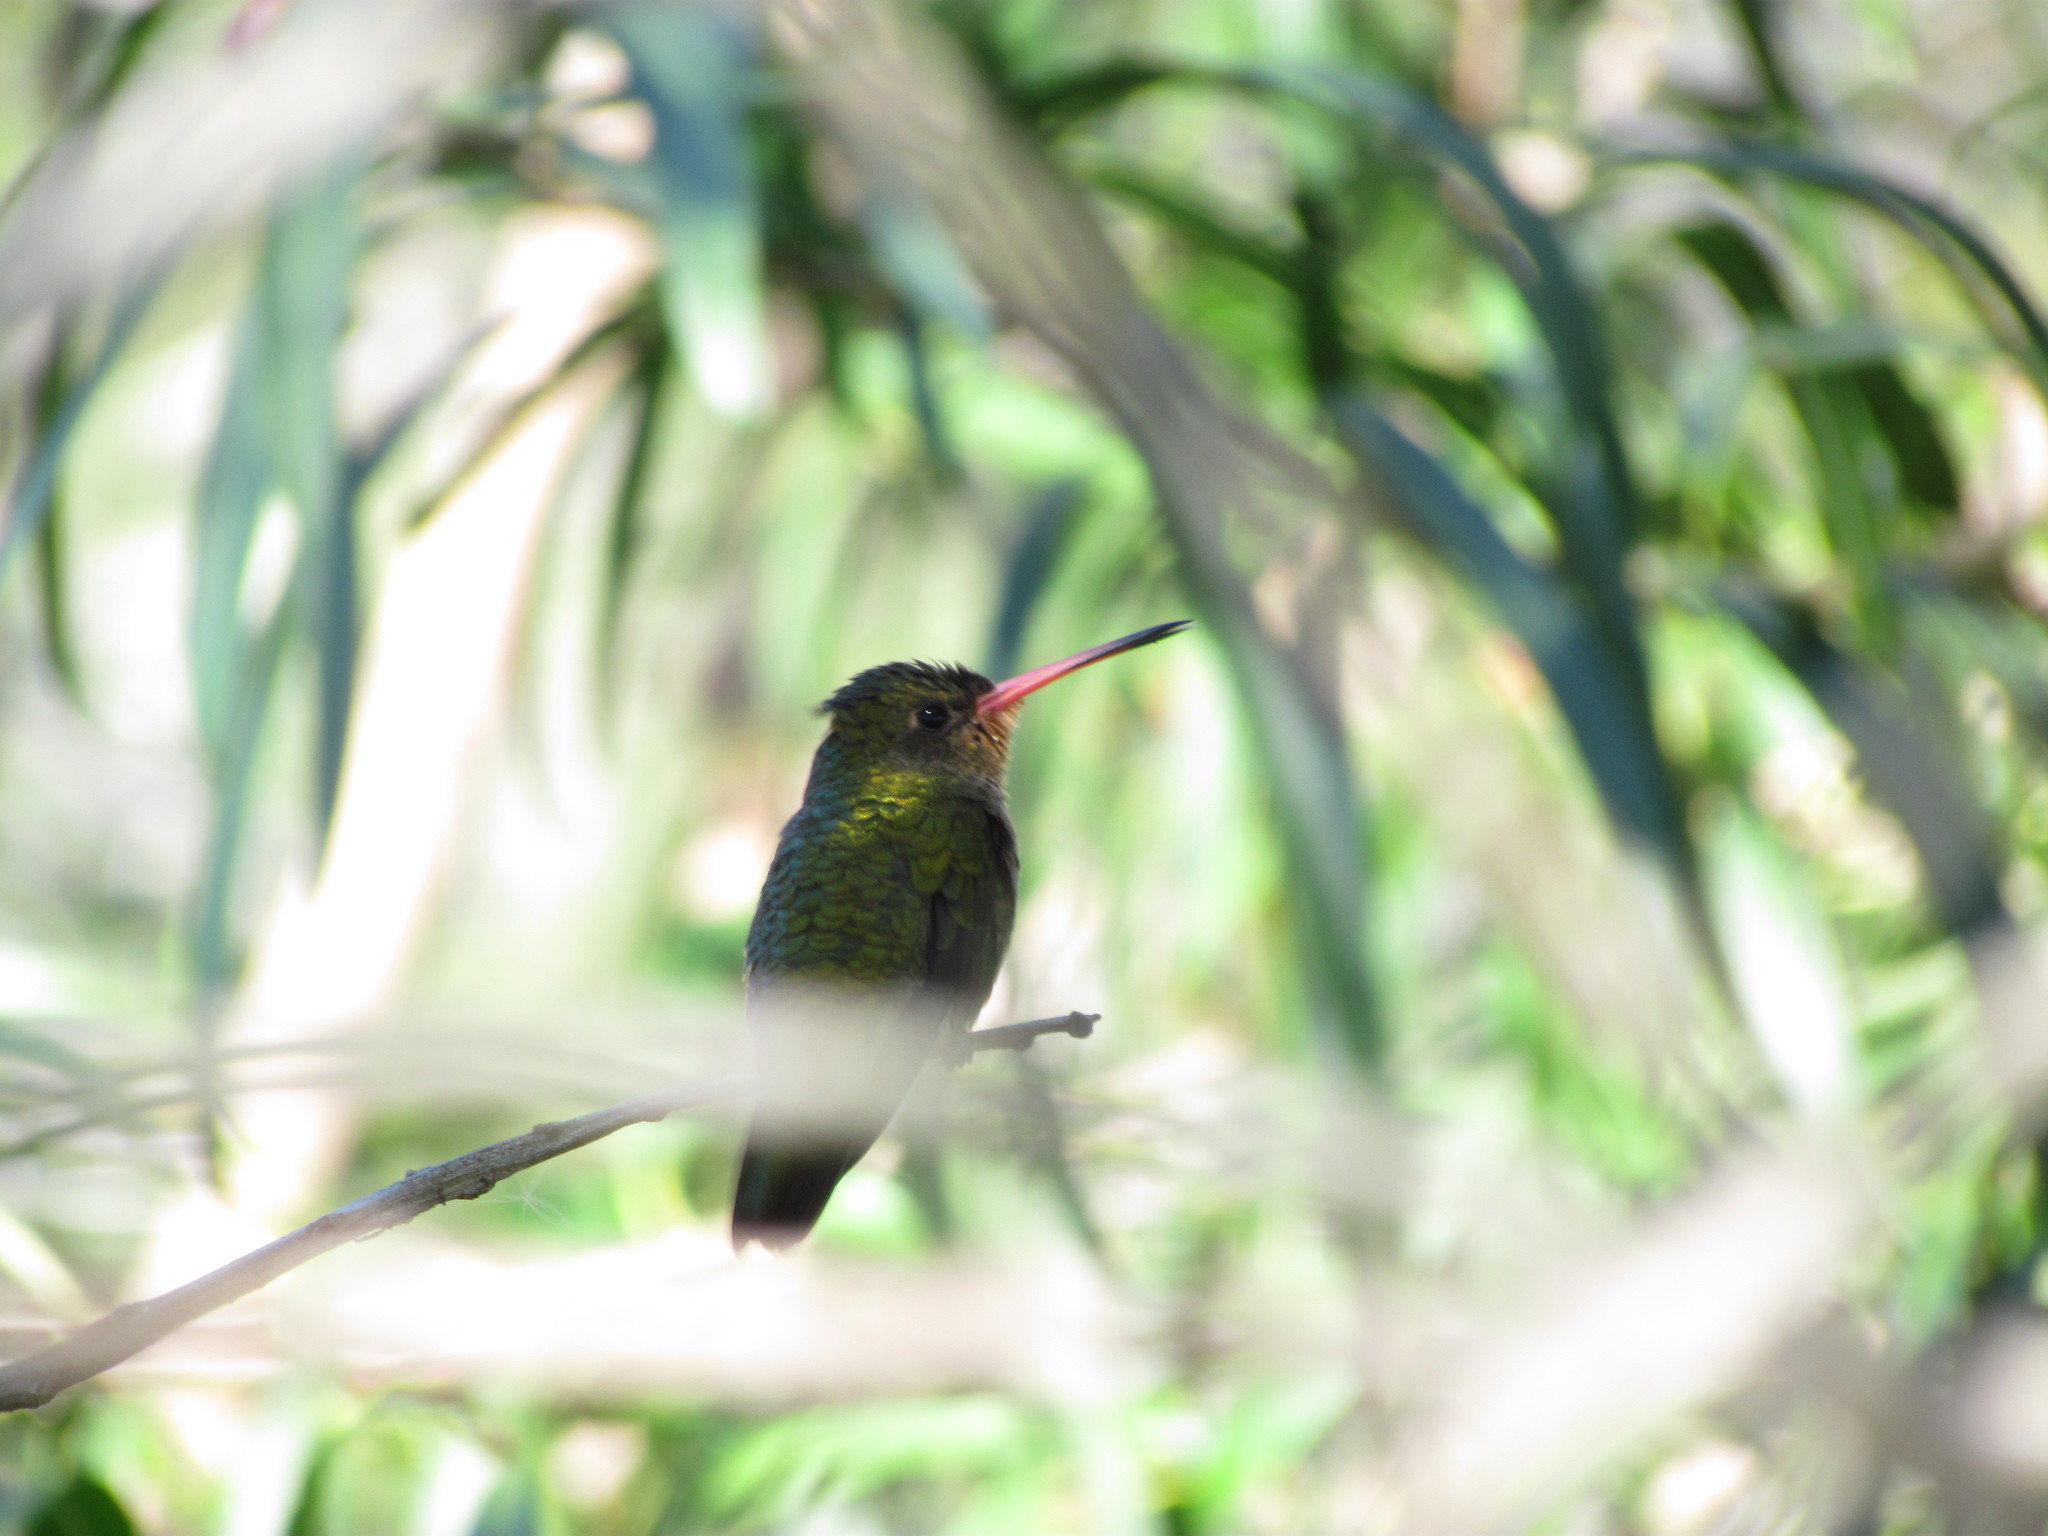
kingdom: Animalia
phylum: Chordata
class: Aves
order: Apodiformes
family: Trochilidae
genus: Hylocharis
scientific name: Hylocharis chrysura
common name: Gilded sapphire
